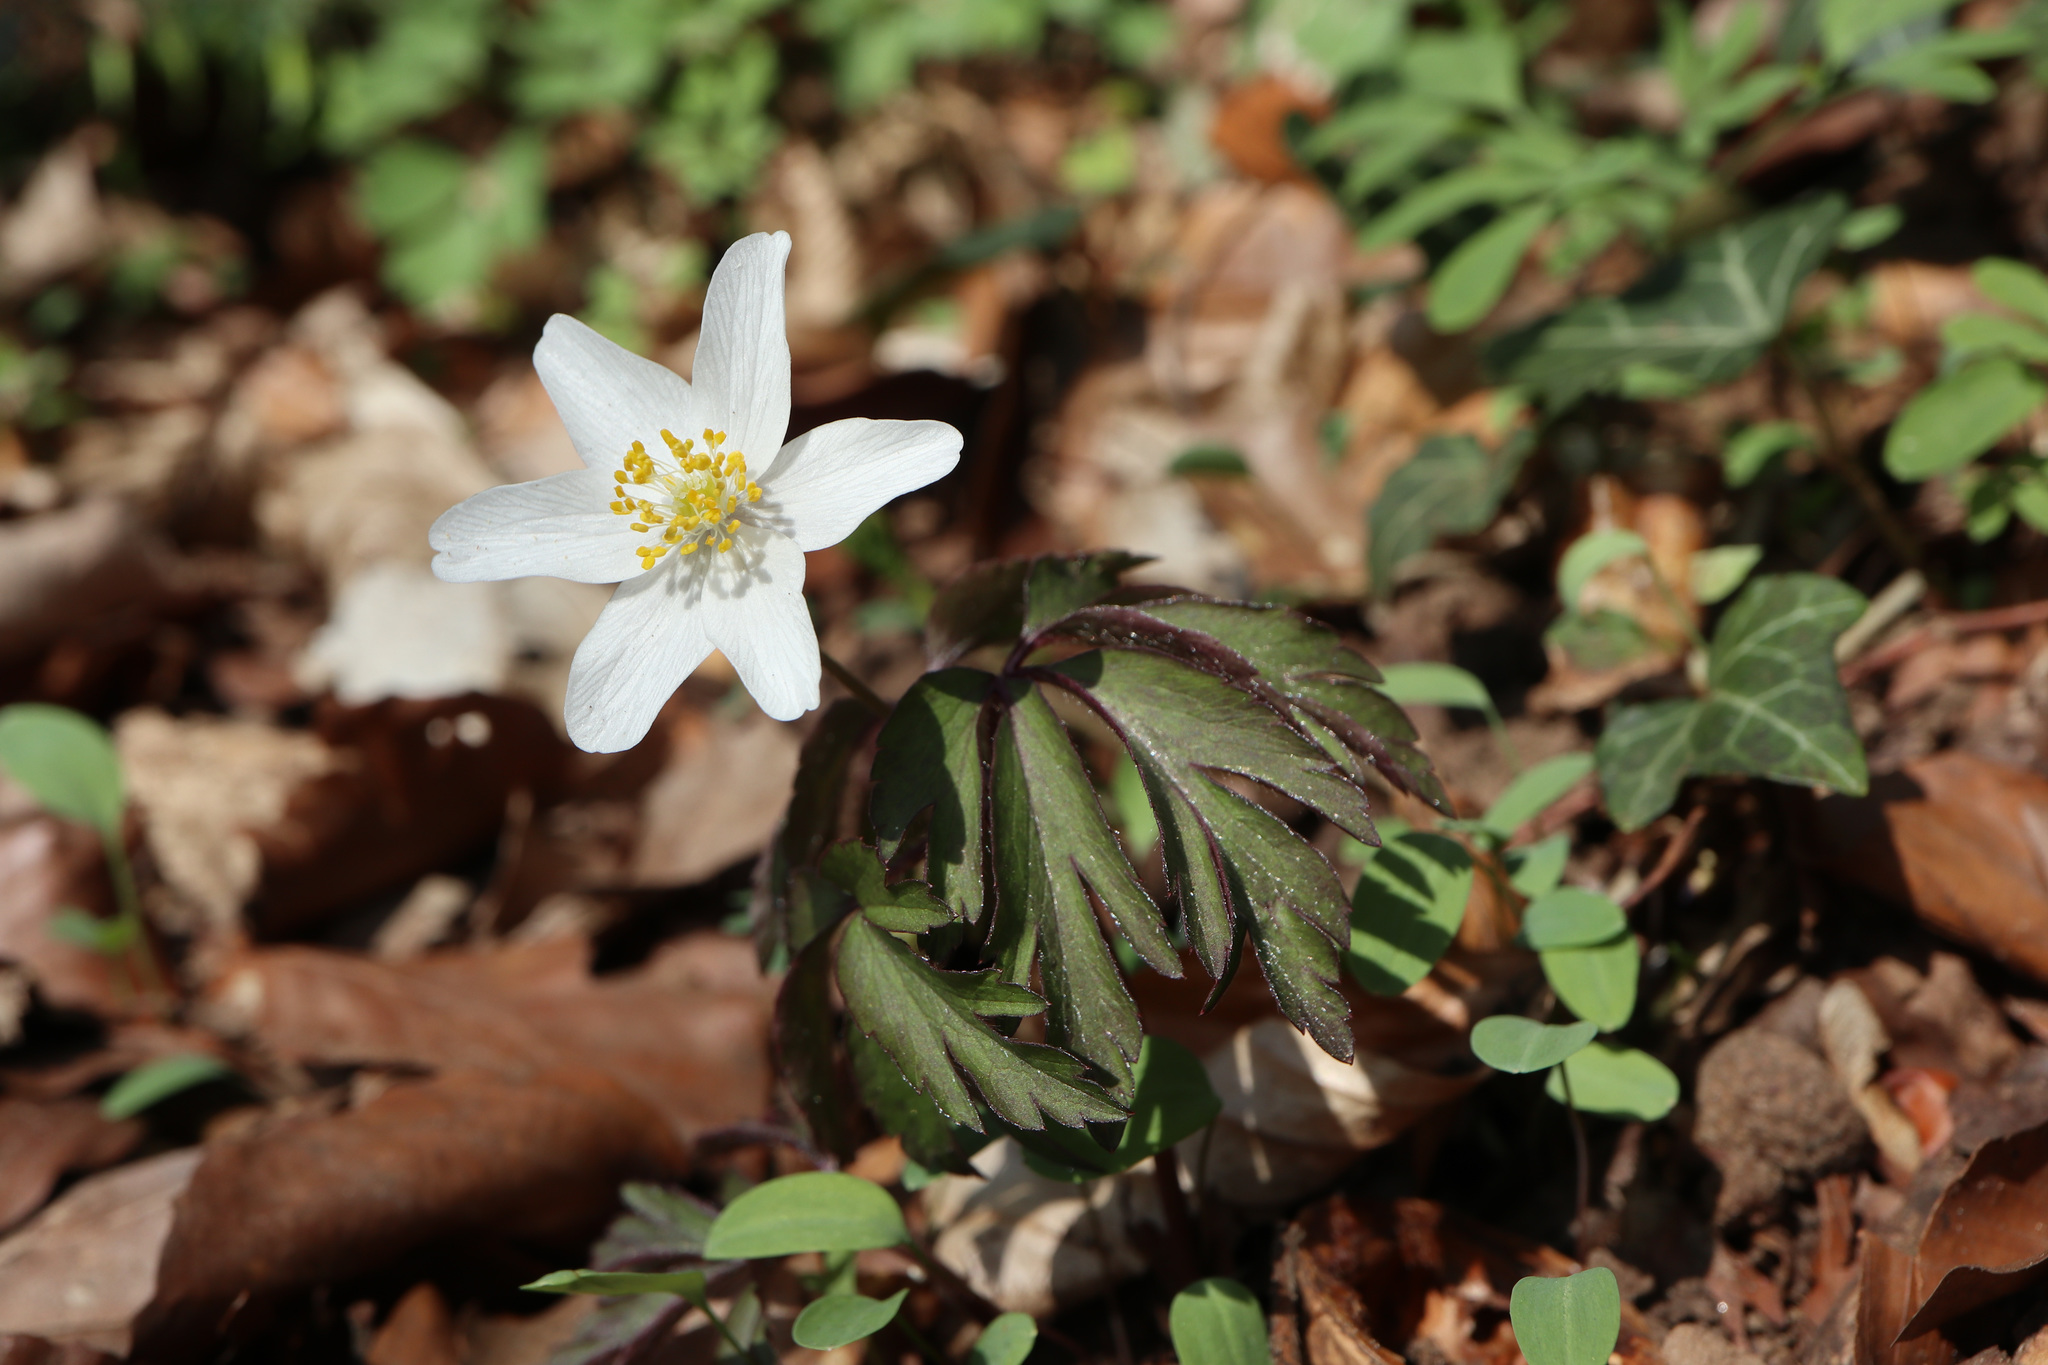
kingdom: Plantae
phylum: Tracheophyta
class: Magnoliopsida
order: Ranunculales
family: Ranunculaceae
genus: Anemone
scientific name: Anemone nemorosa
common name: Wood anemone
